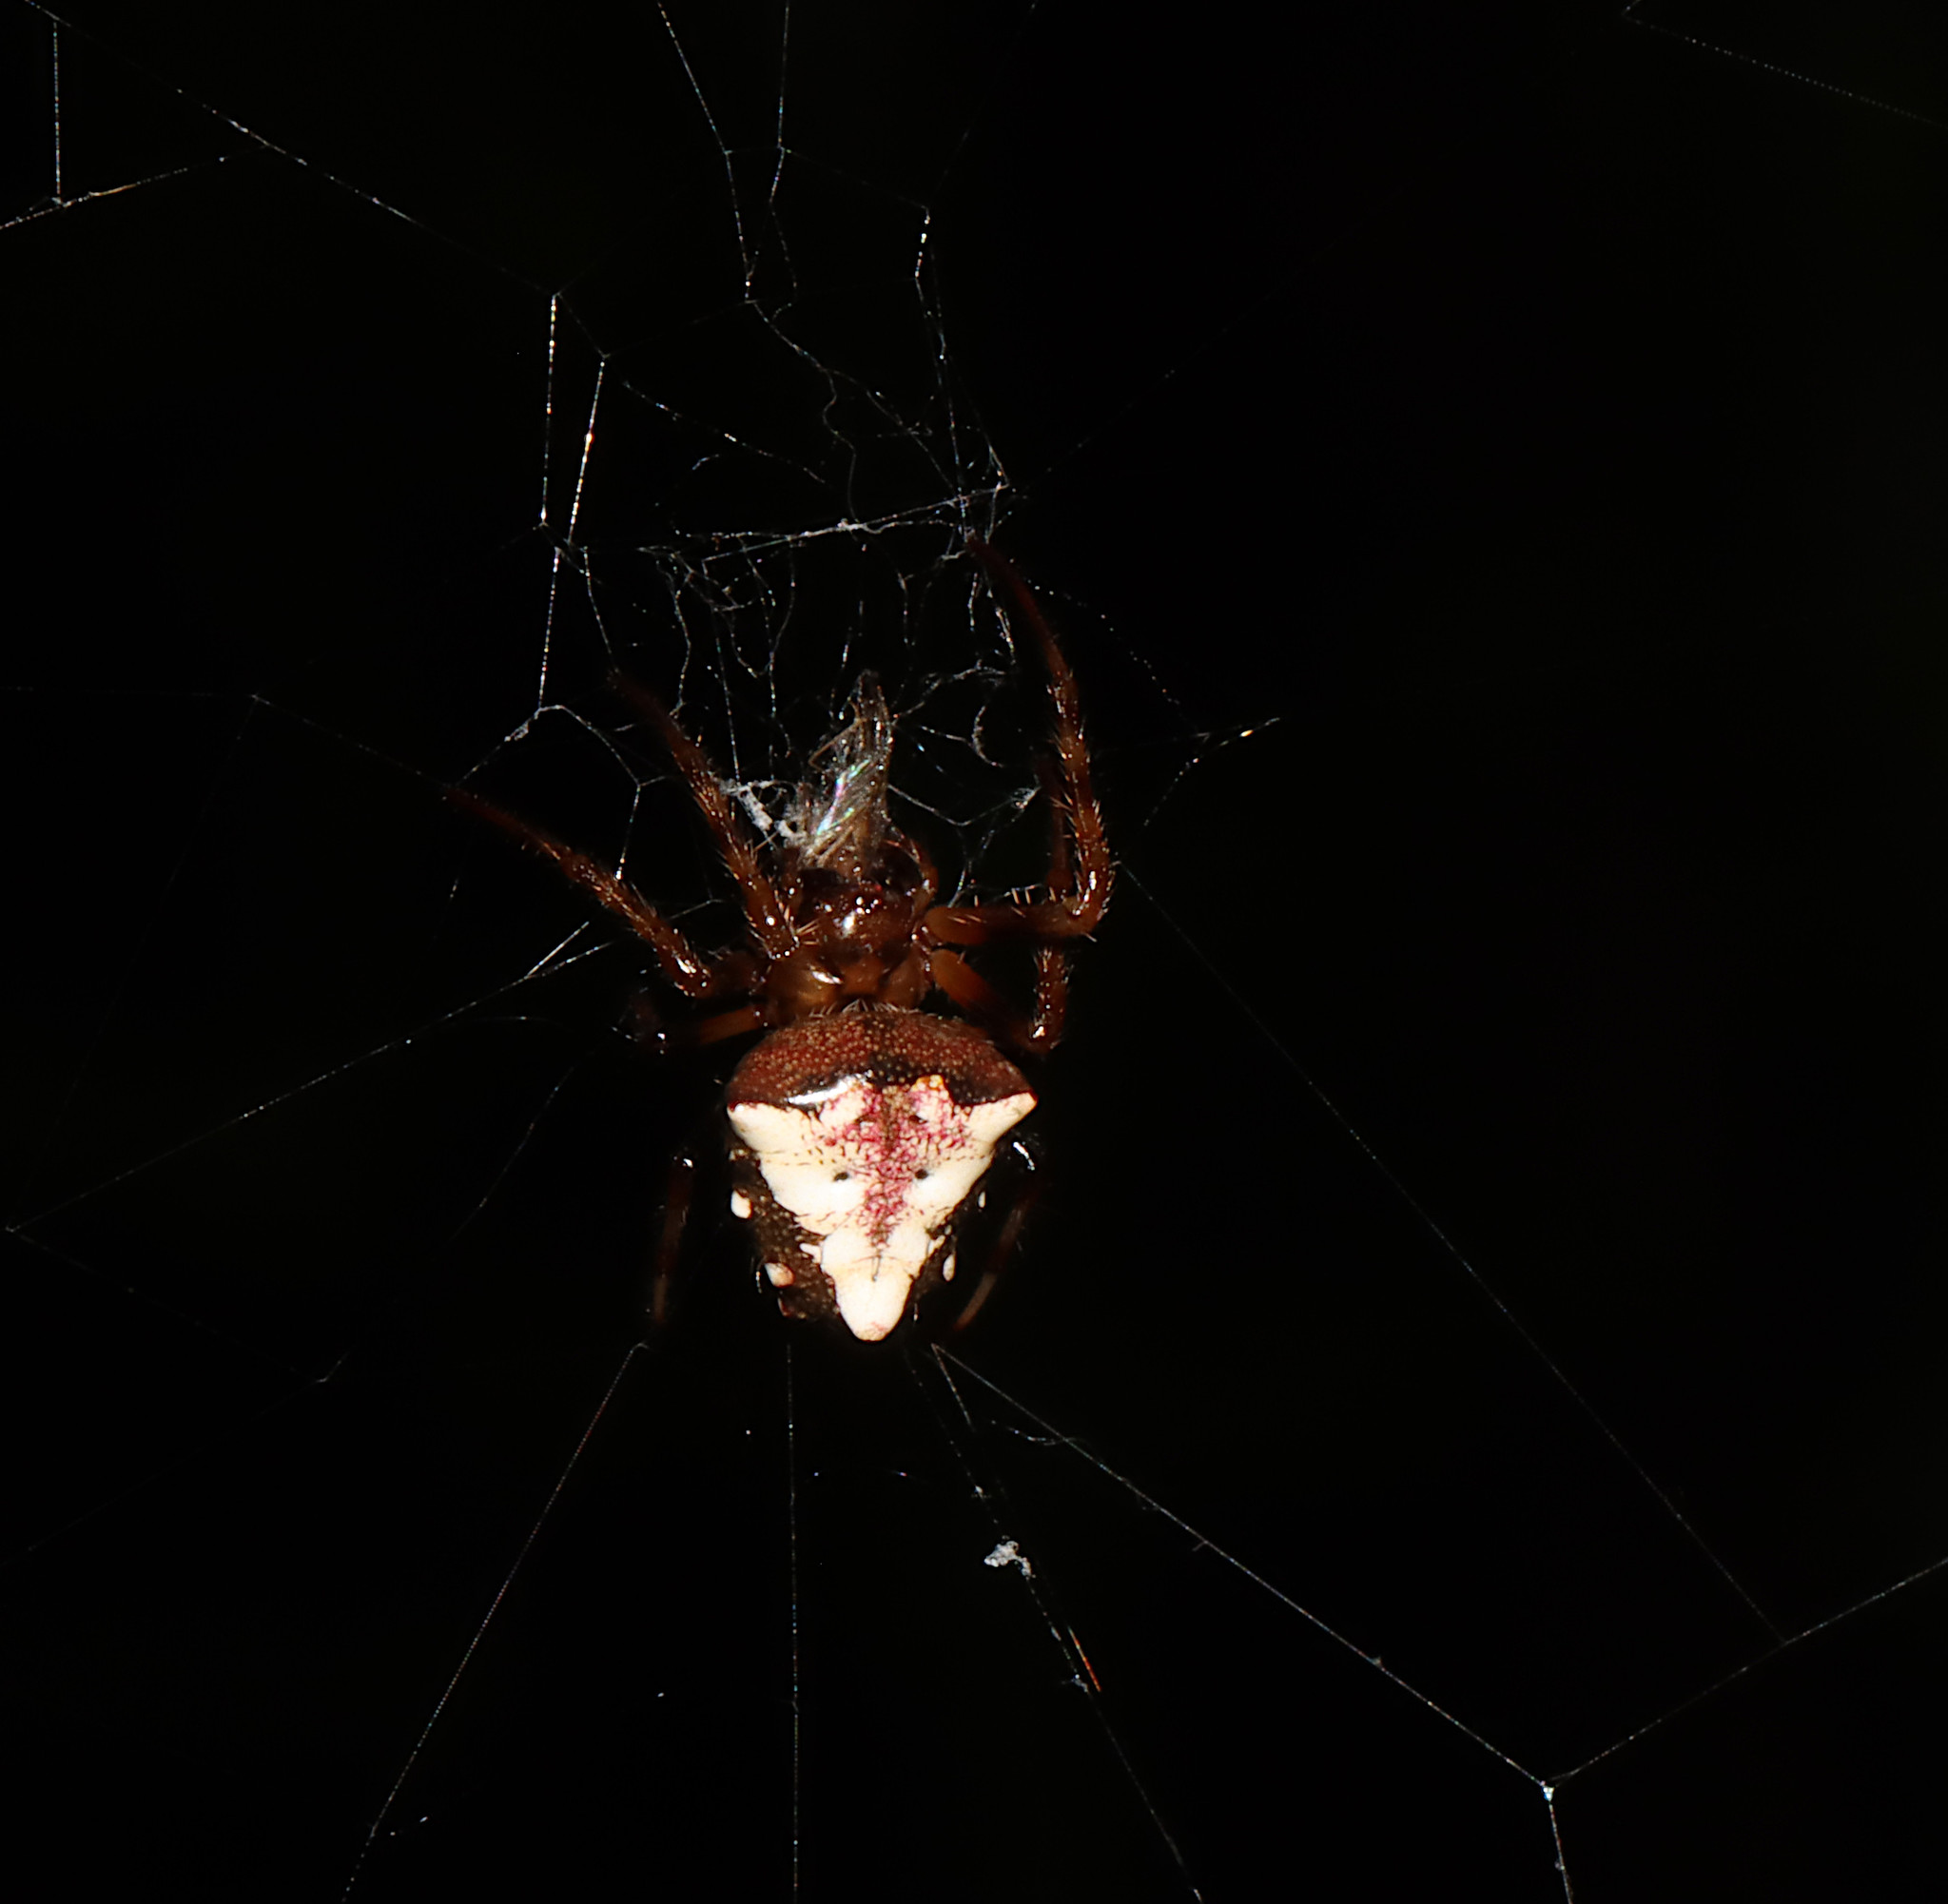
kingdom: Animalia
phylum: Arthropoda
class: Arachnida
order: Araneae
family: Araneidae
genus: Verrucosa
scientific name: Verrucosa arenata
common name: Orb weavers
